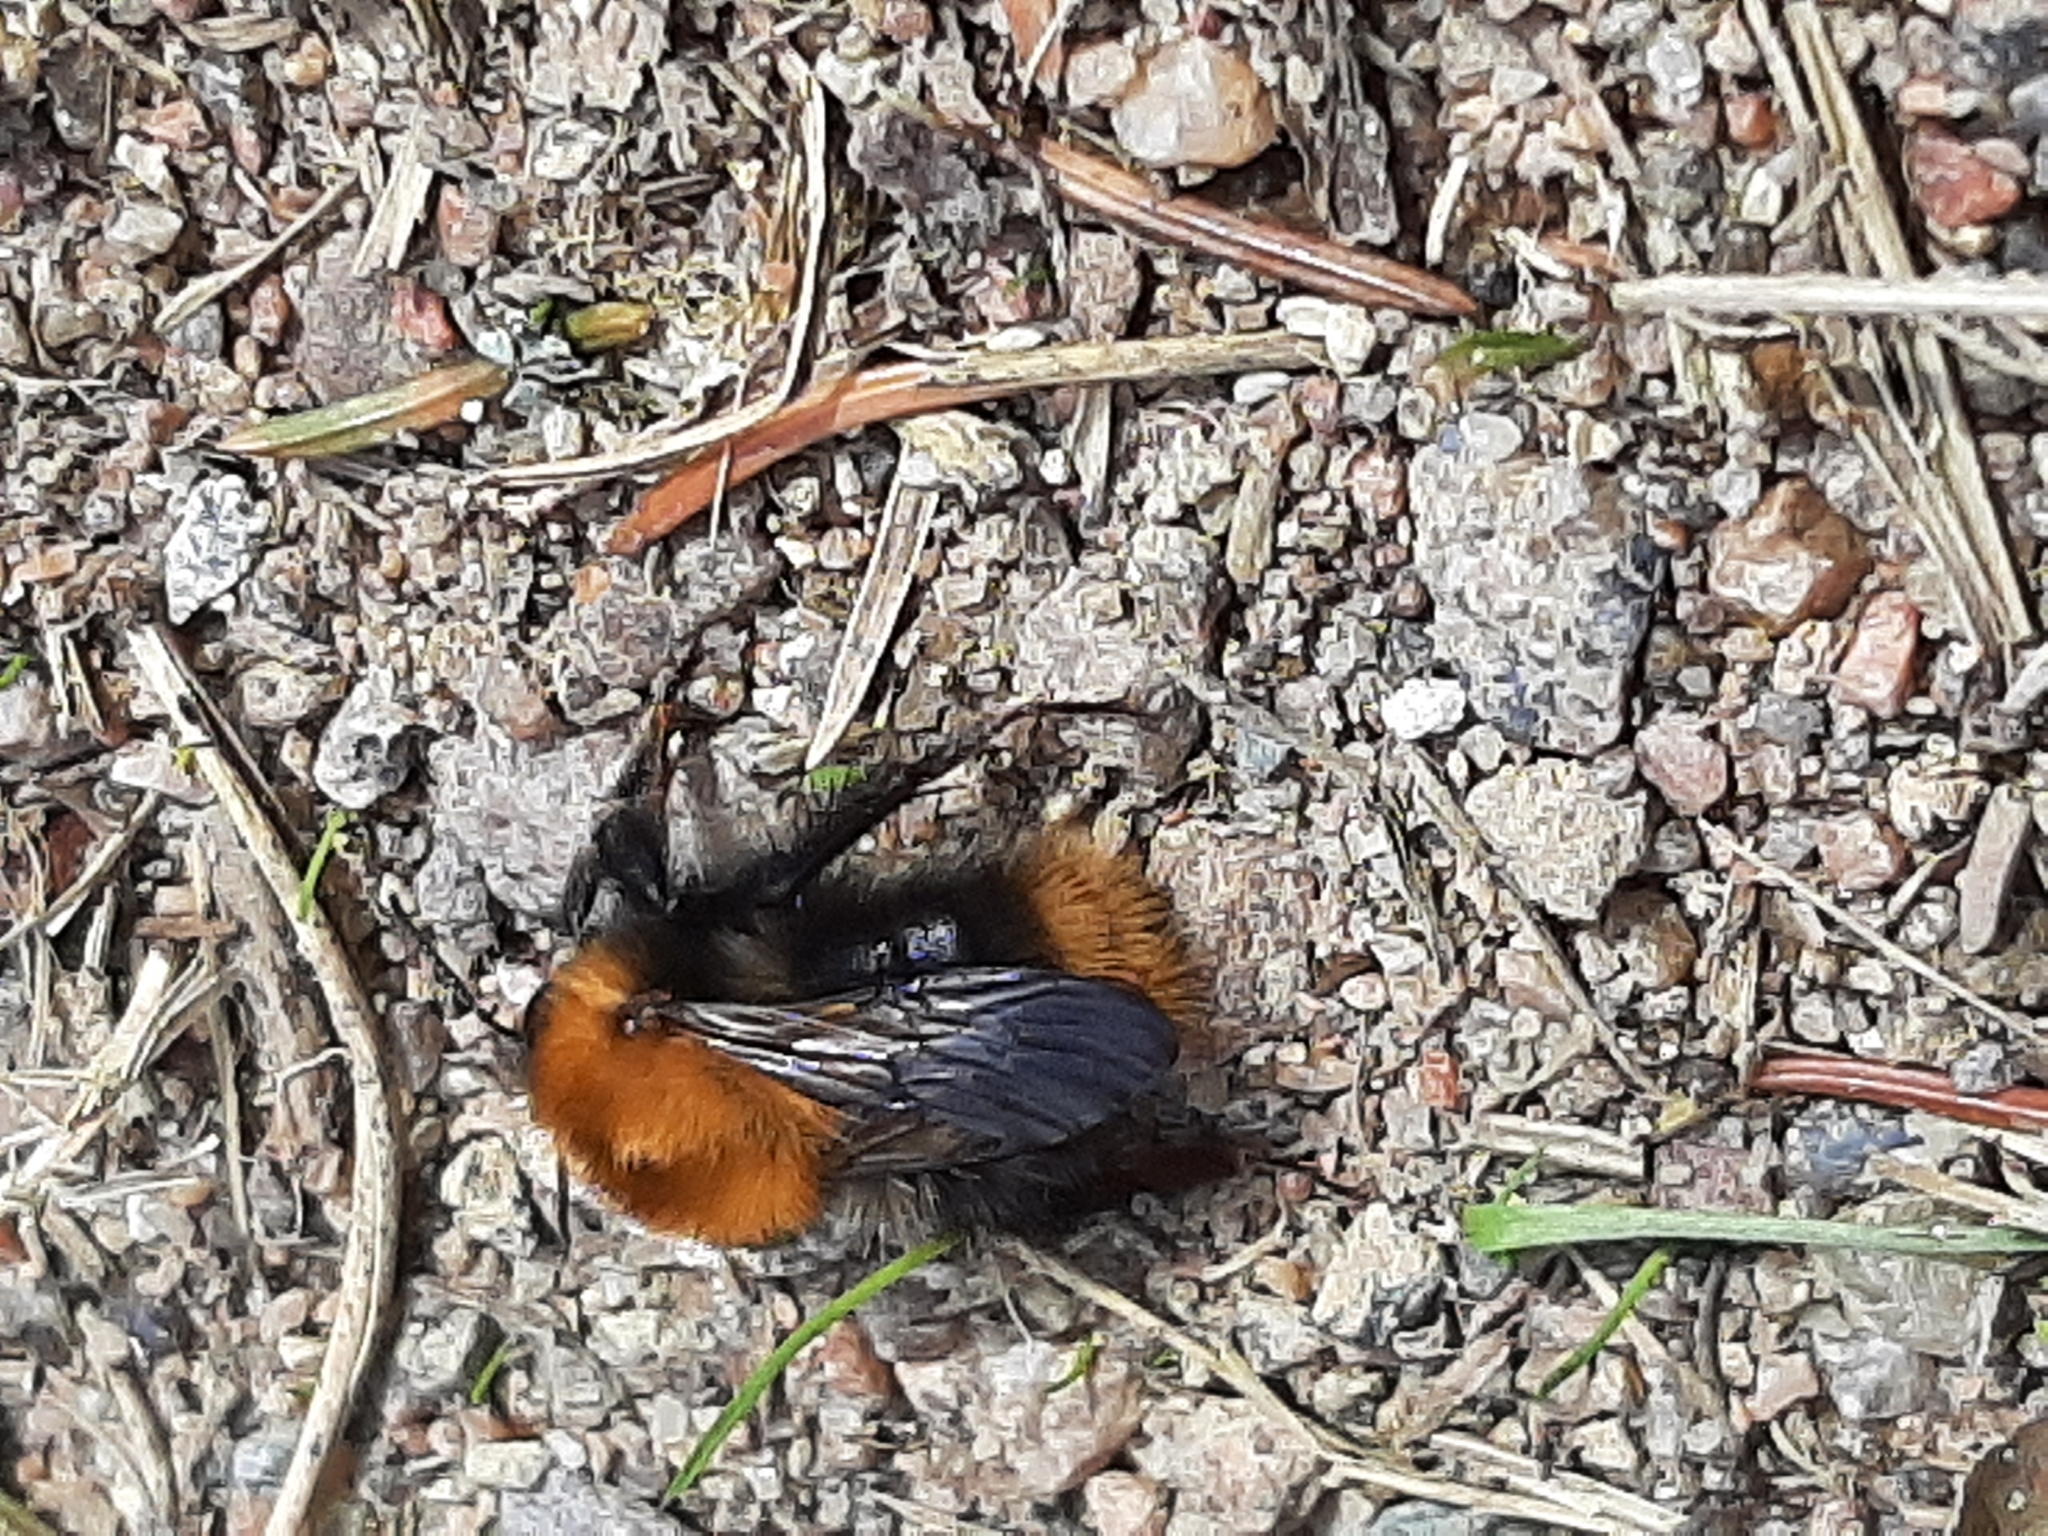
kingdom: Animalia
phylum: Arthropoda
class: Insecta
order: Hymenoptera
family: Apidae
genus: Bombus
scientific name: Bombus pascuorum
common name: Common carder bee
